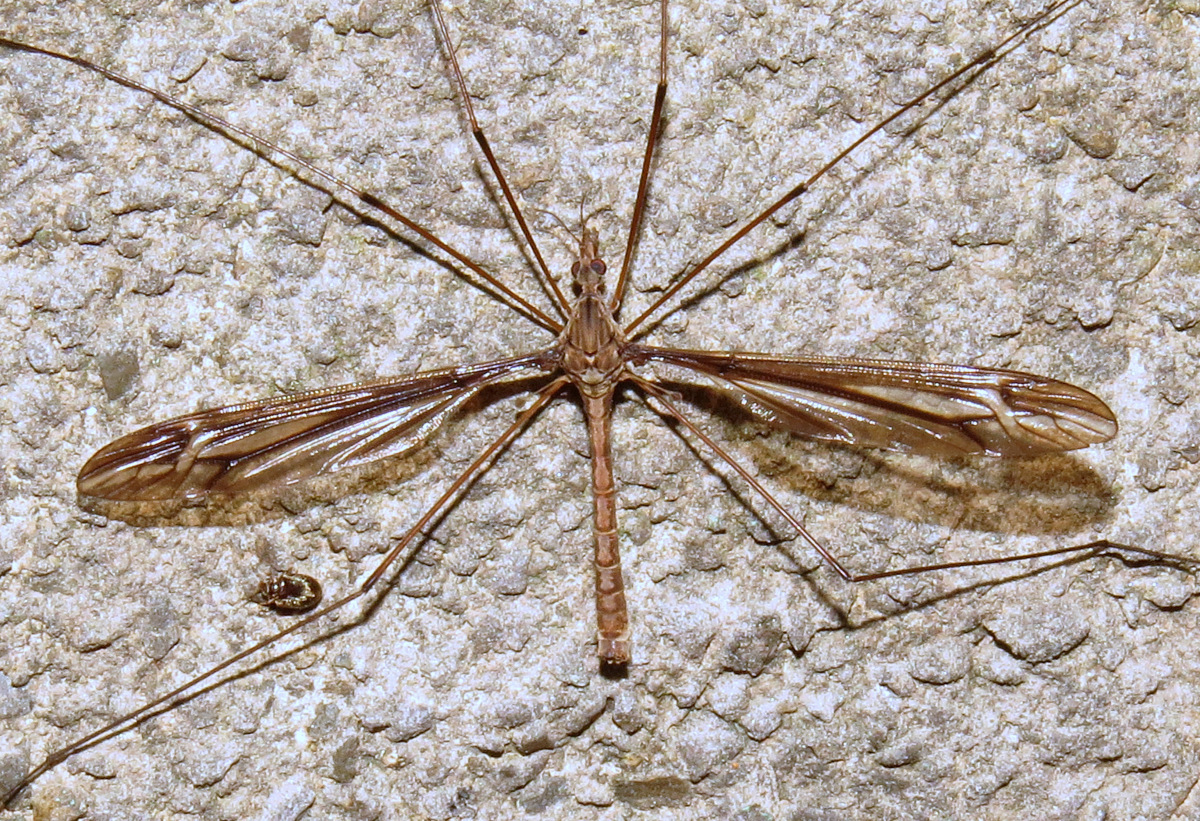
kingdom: Animalia
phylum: Arthropoda
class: Insecta
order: Diptera
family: Tipulidae
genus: Tipula
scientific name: Tipula caloptera
